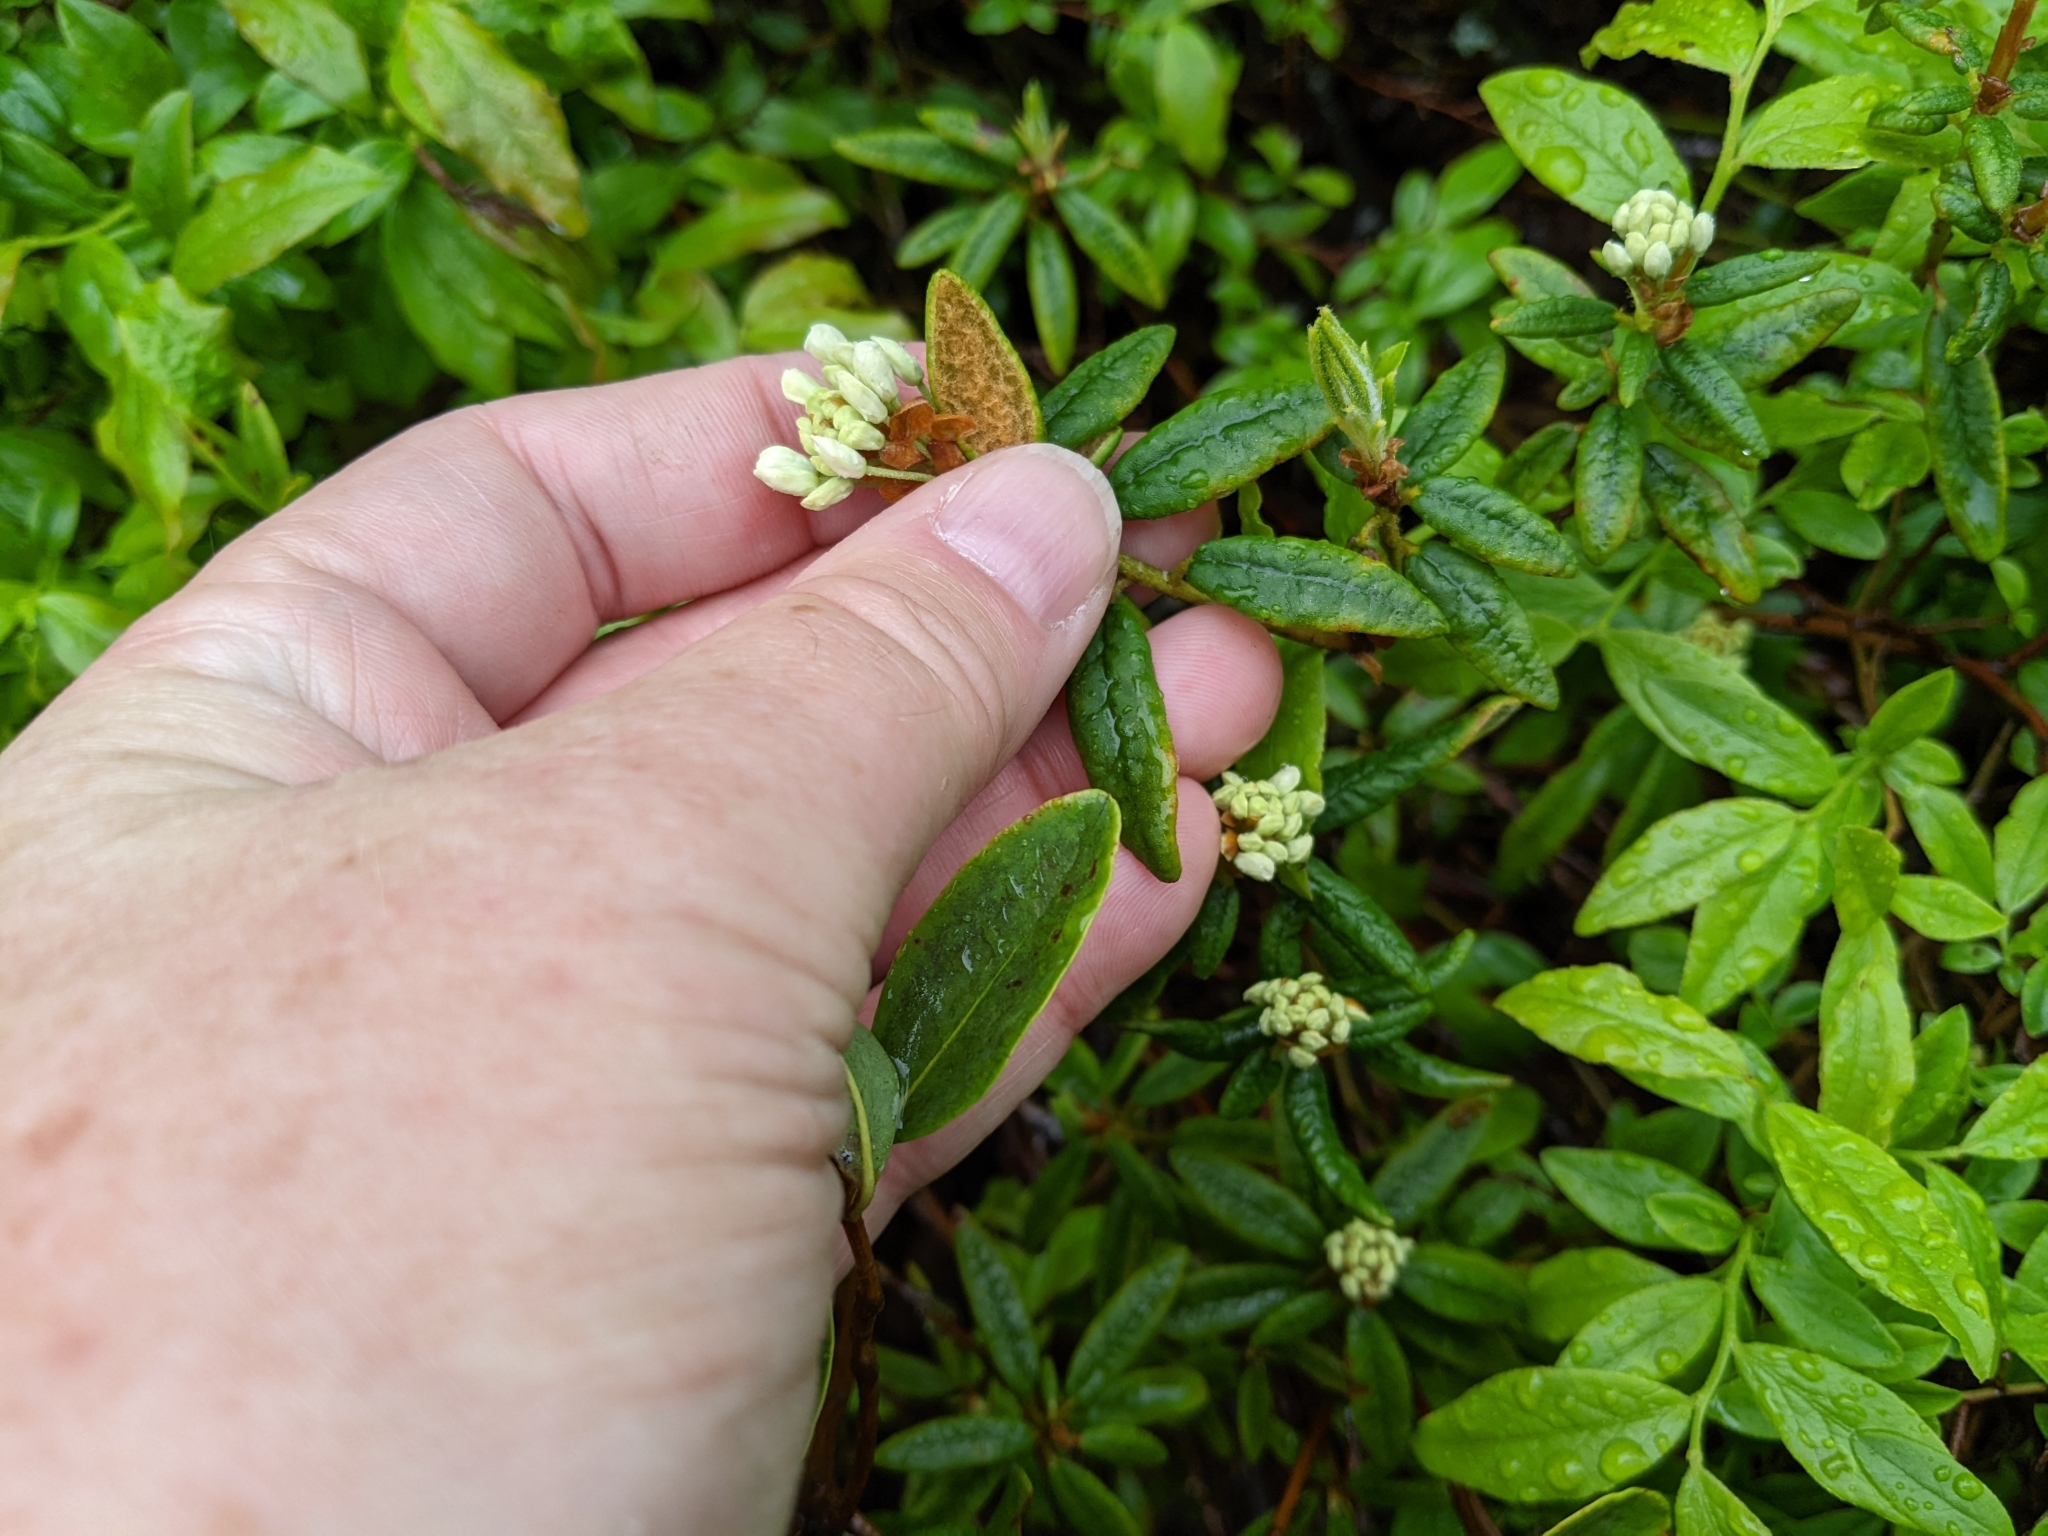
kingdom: Plantae
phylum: Tracheophyta
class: Magnoliopsida
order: Ericales
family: Ericaceae
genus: Rhododendron
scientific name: Rhododendron groenlandicum
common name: Bog labrador tea
